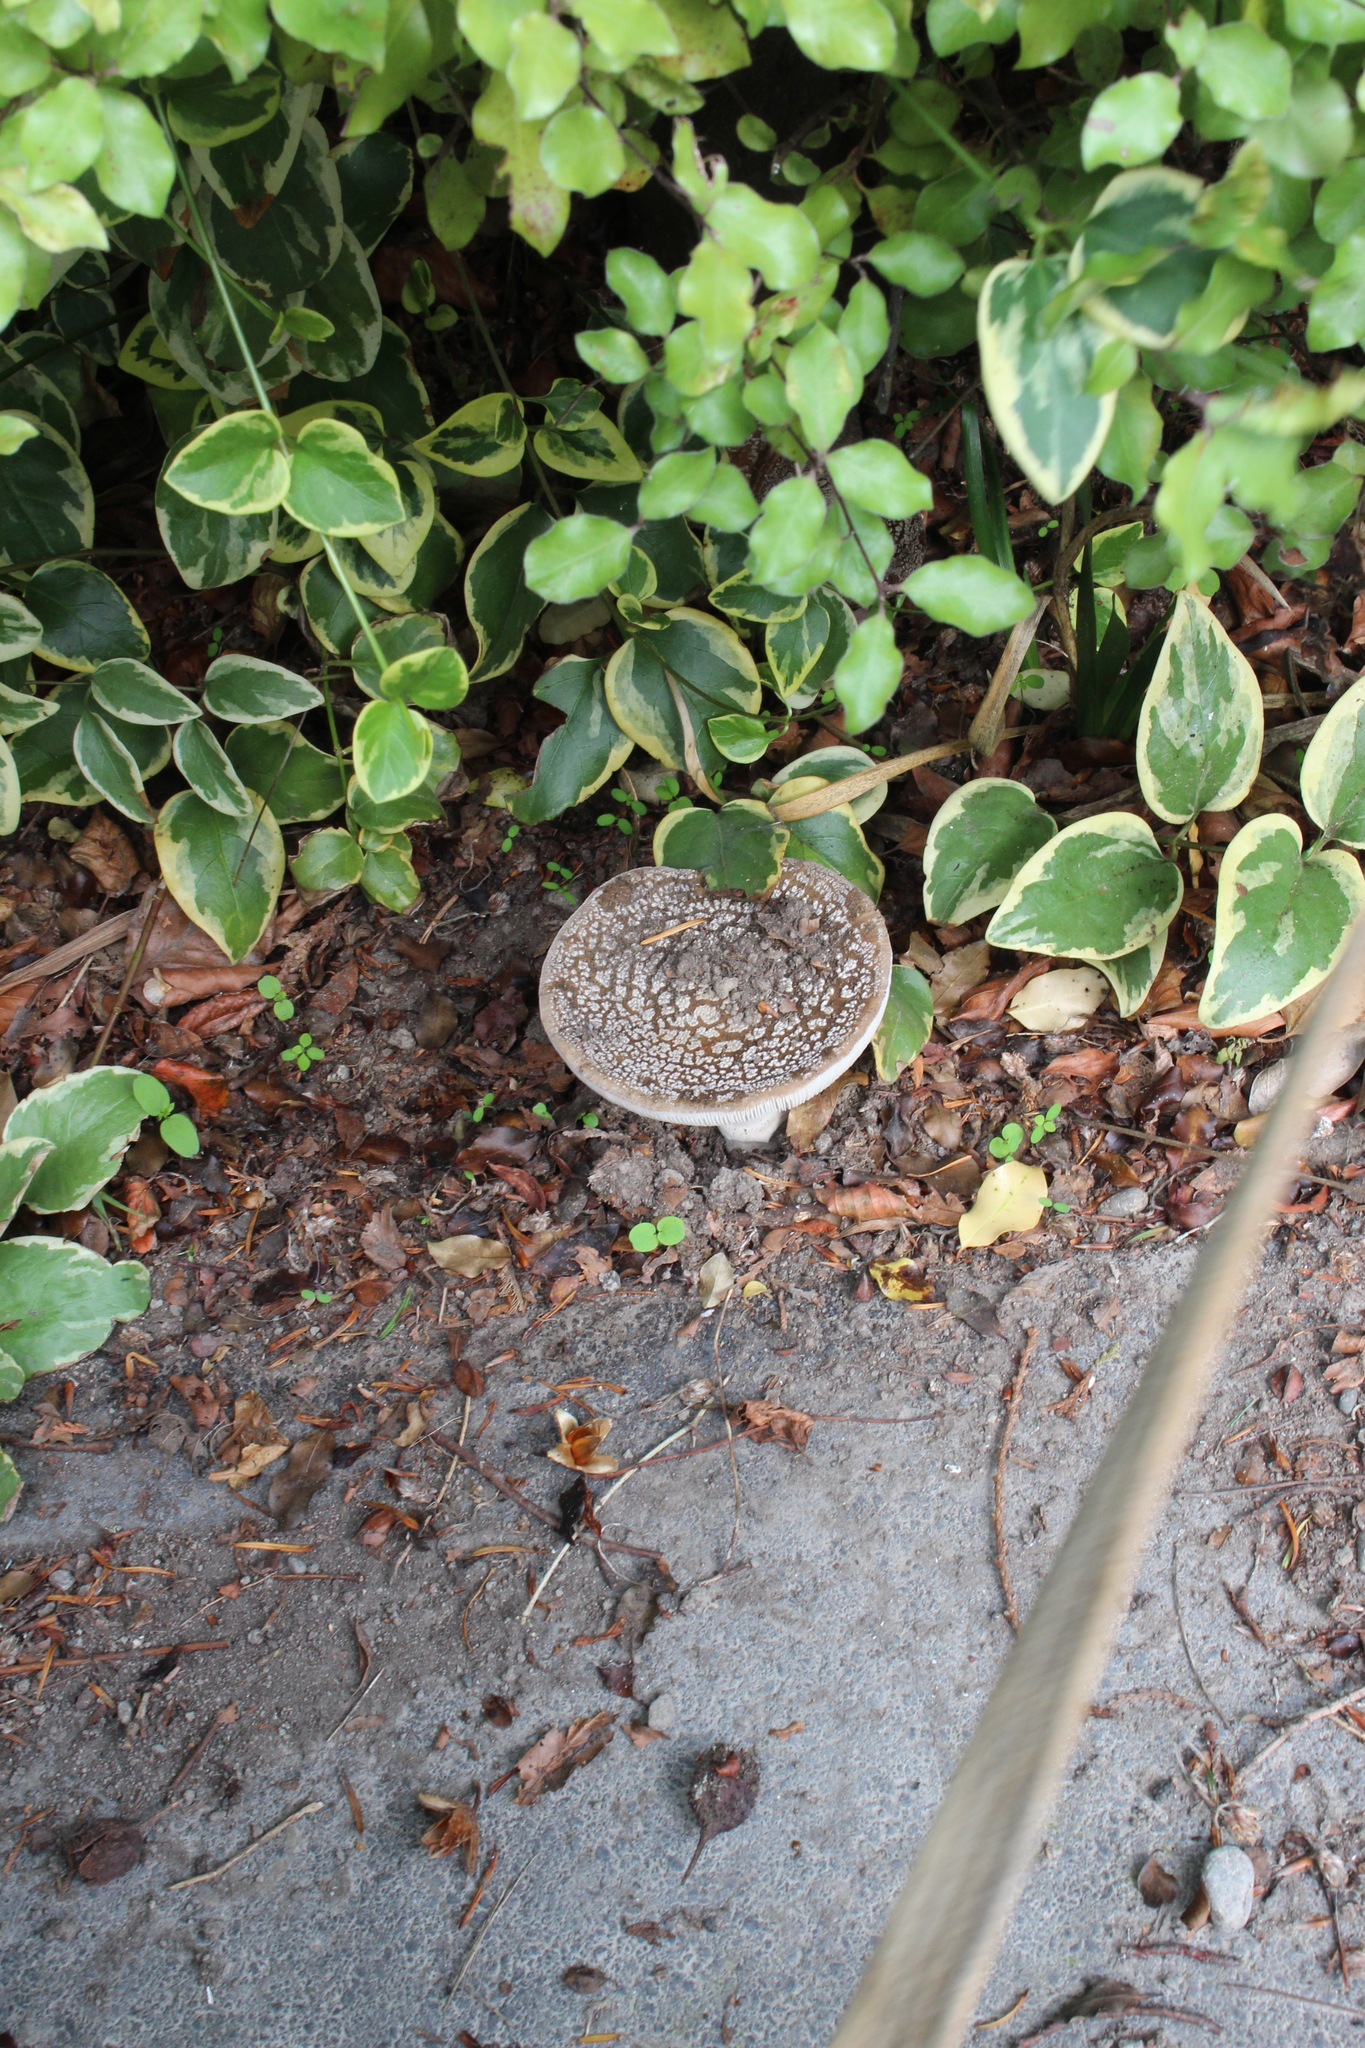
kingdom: Fungi
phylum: Basidiomycota
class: Agaricomycetes
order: Agaricales
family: Amanitaceae
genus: Amanita
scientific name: Amanita excelsa
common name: European false blusher
